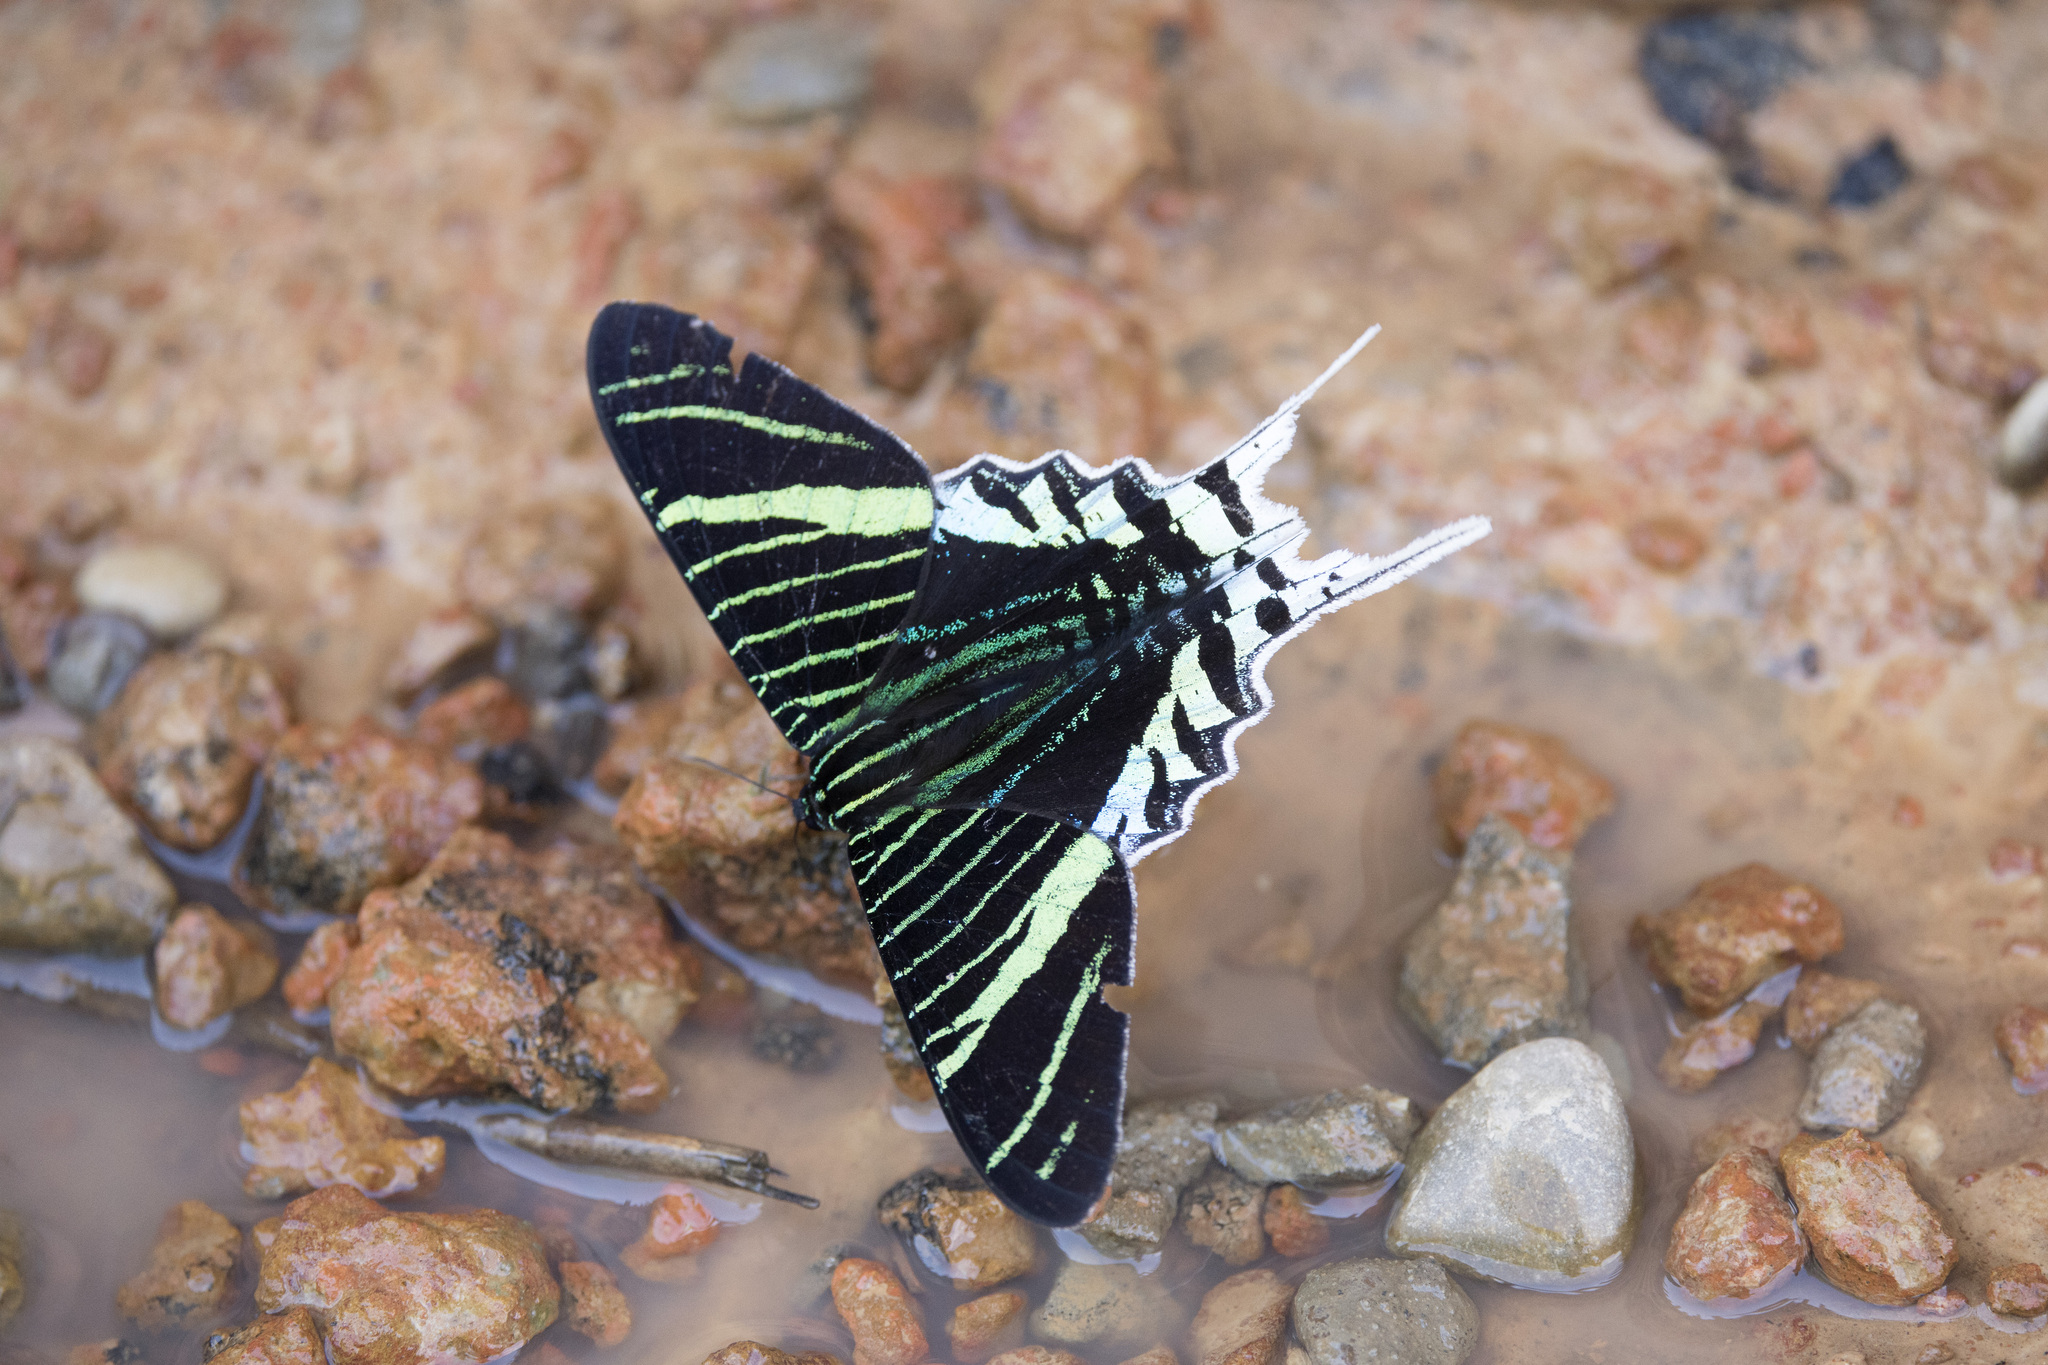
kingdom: Animalia
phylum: Arthropoda
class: Insecta
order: Lepidoptera
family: Uraniidae
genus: Urania
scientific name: Urania leilus
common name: Peacock moth
